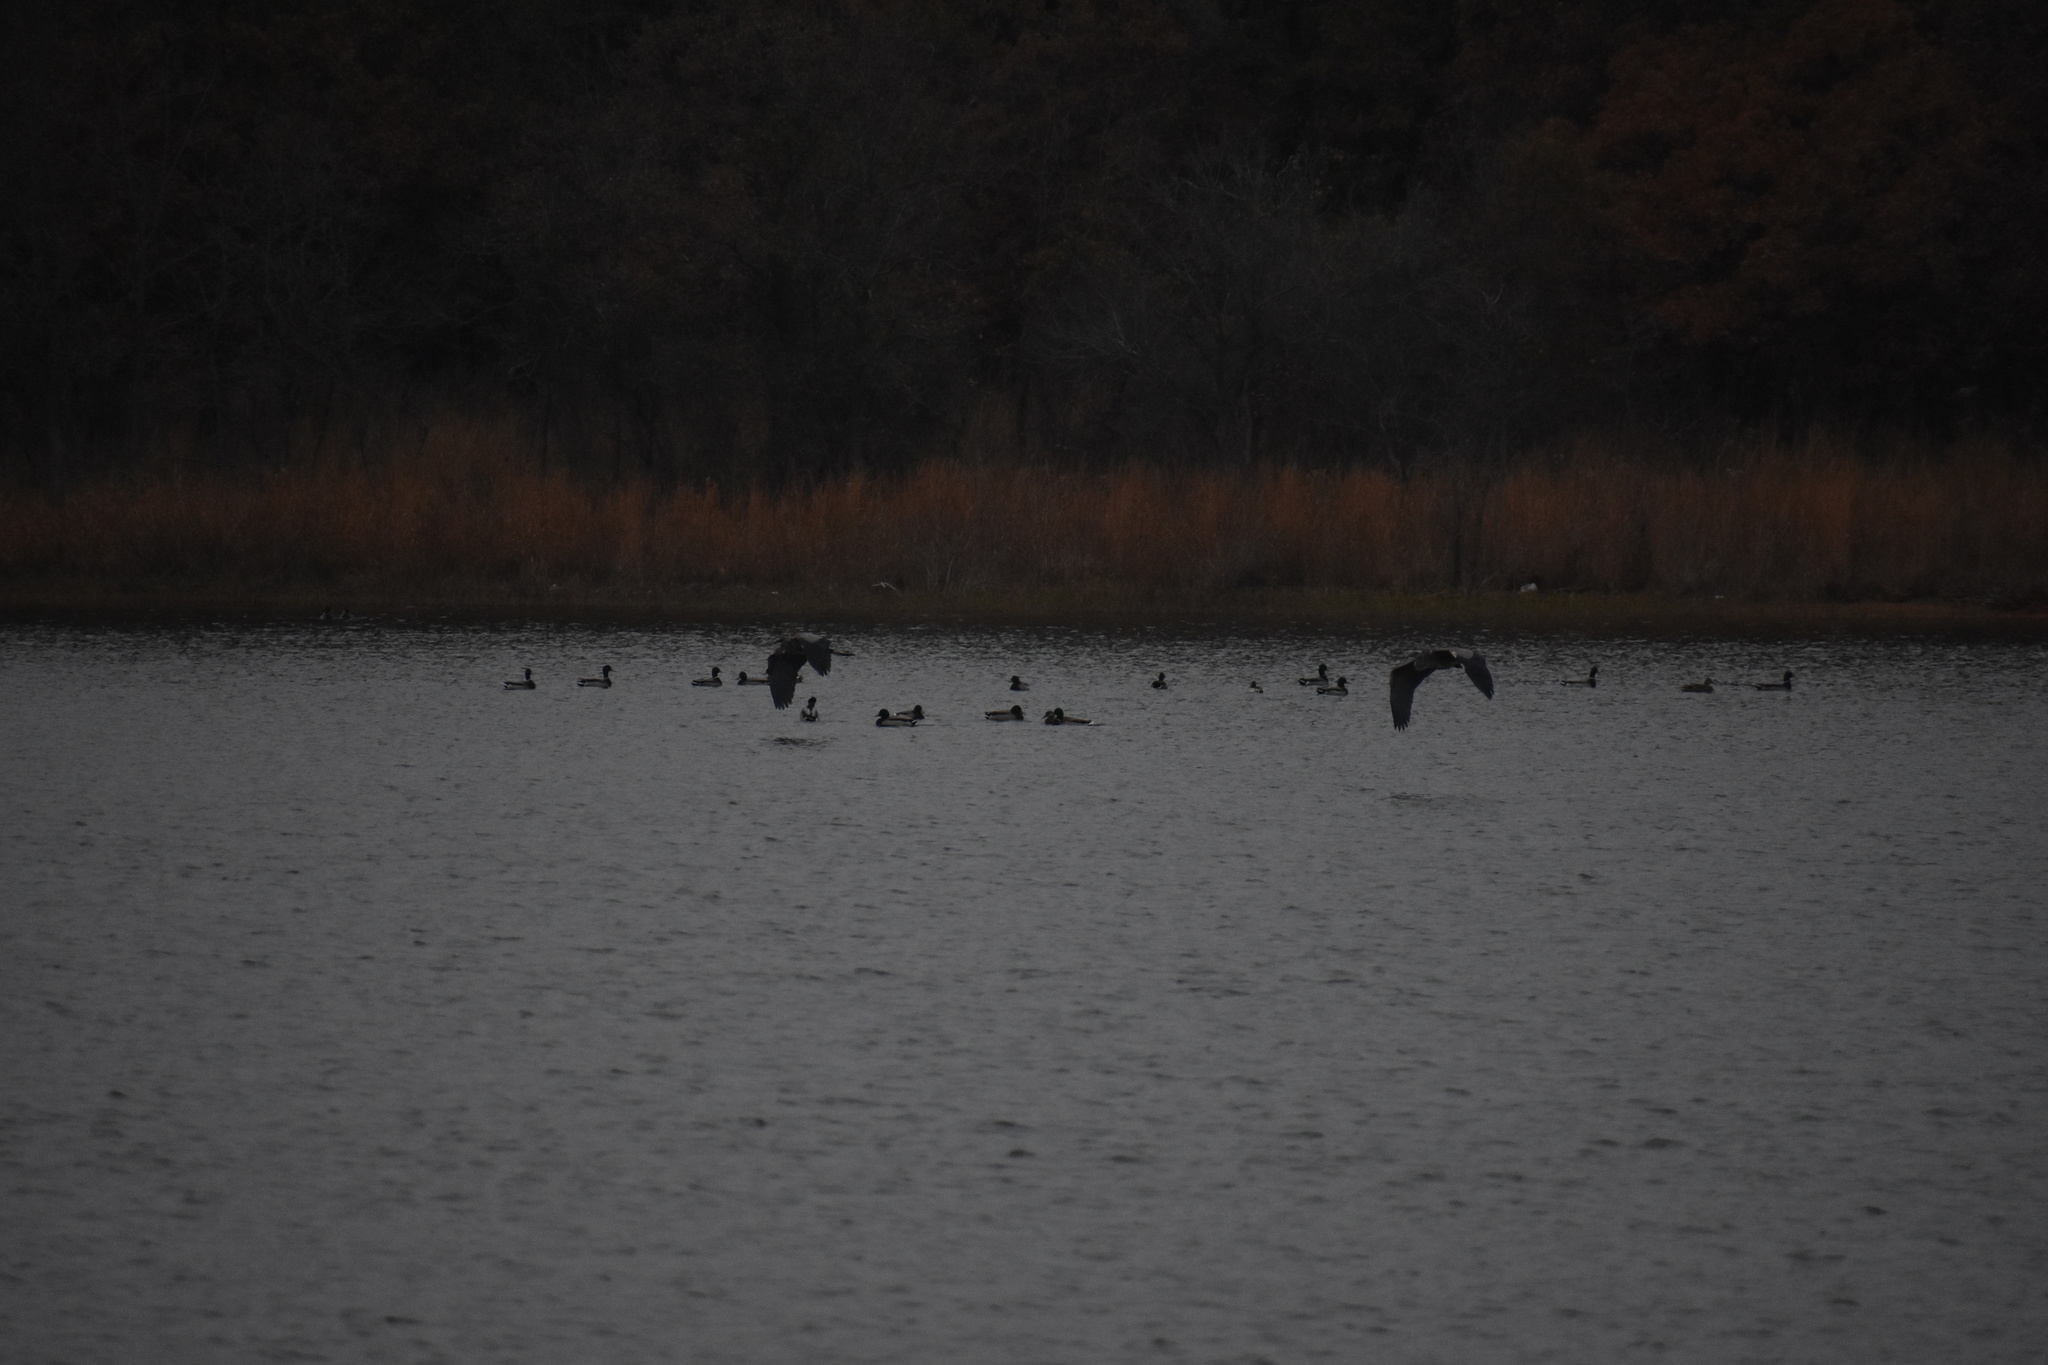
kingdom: Animalia
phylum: Chordata
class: Aves
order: Pelecaniformes
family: Ardeidae
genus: Ardea
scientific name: Ardea herodias
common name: Great blue heron
